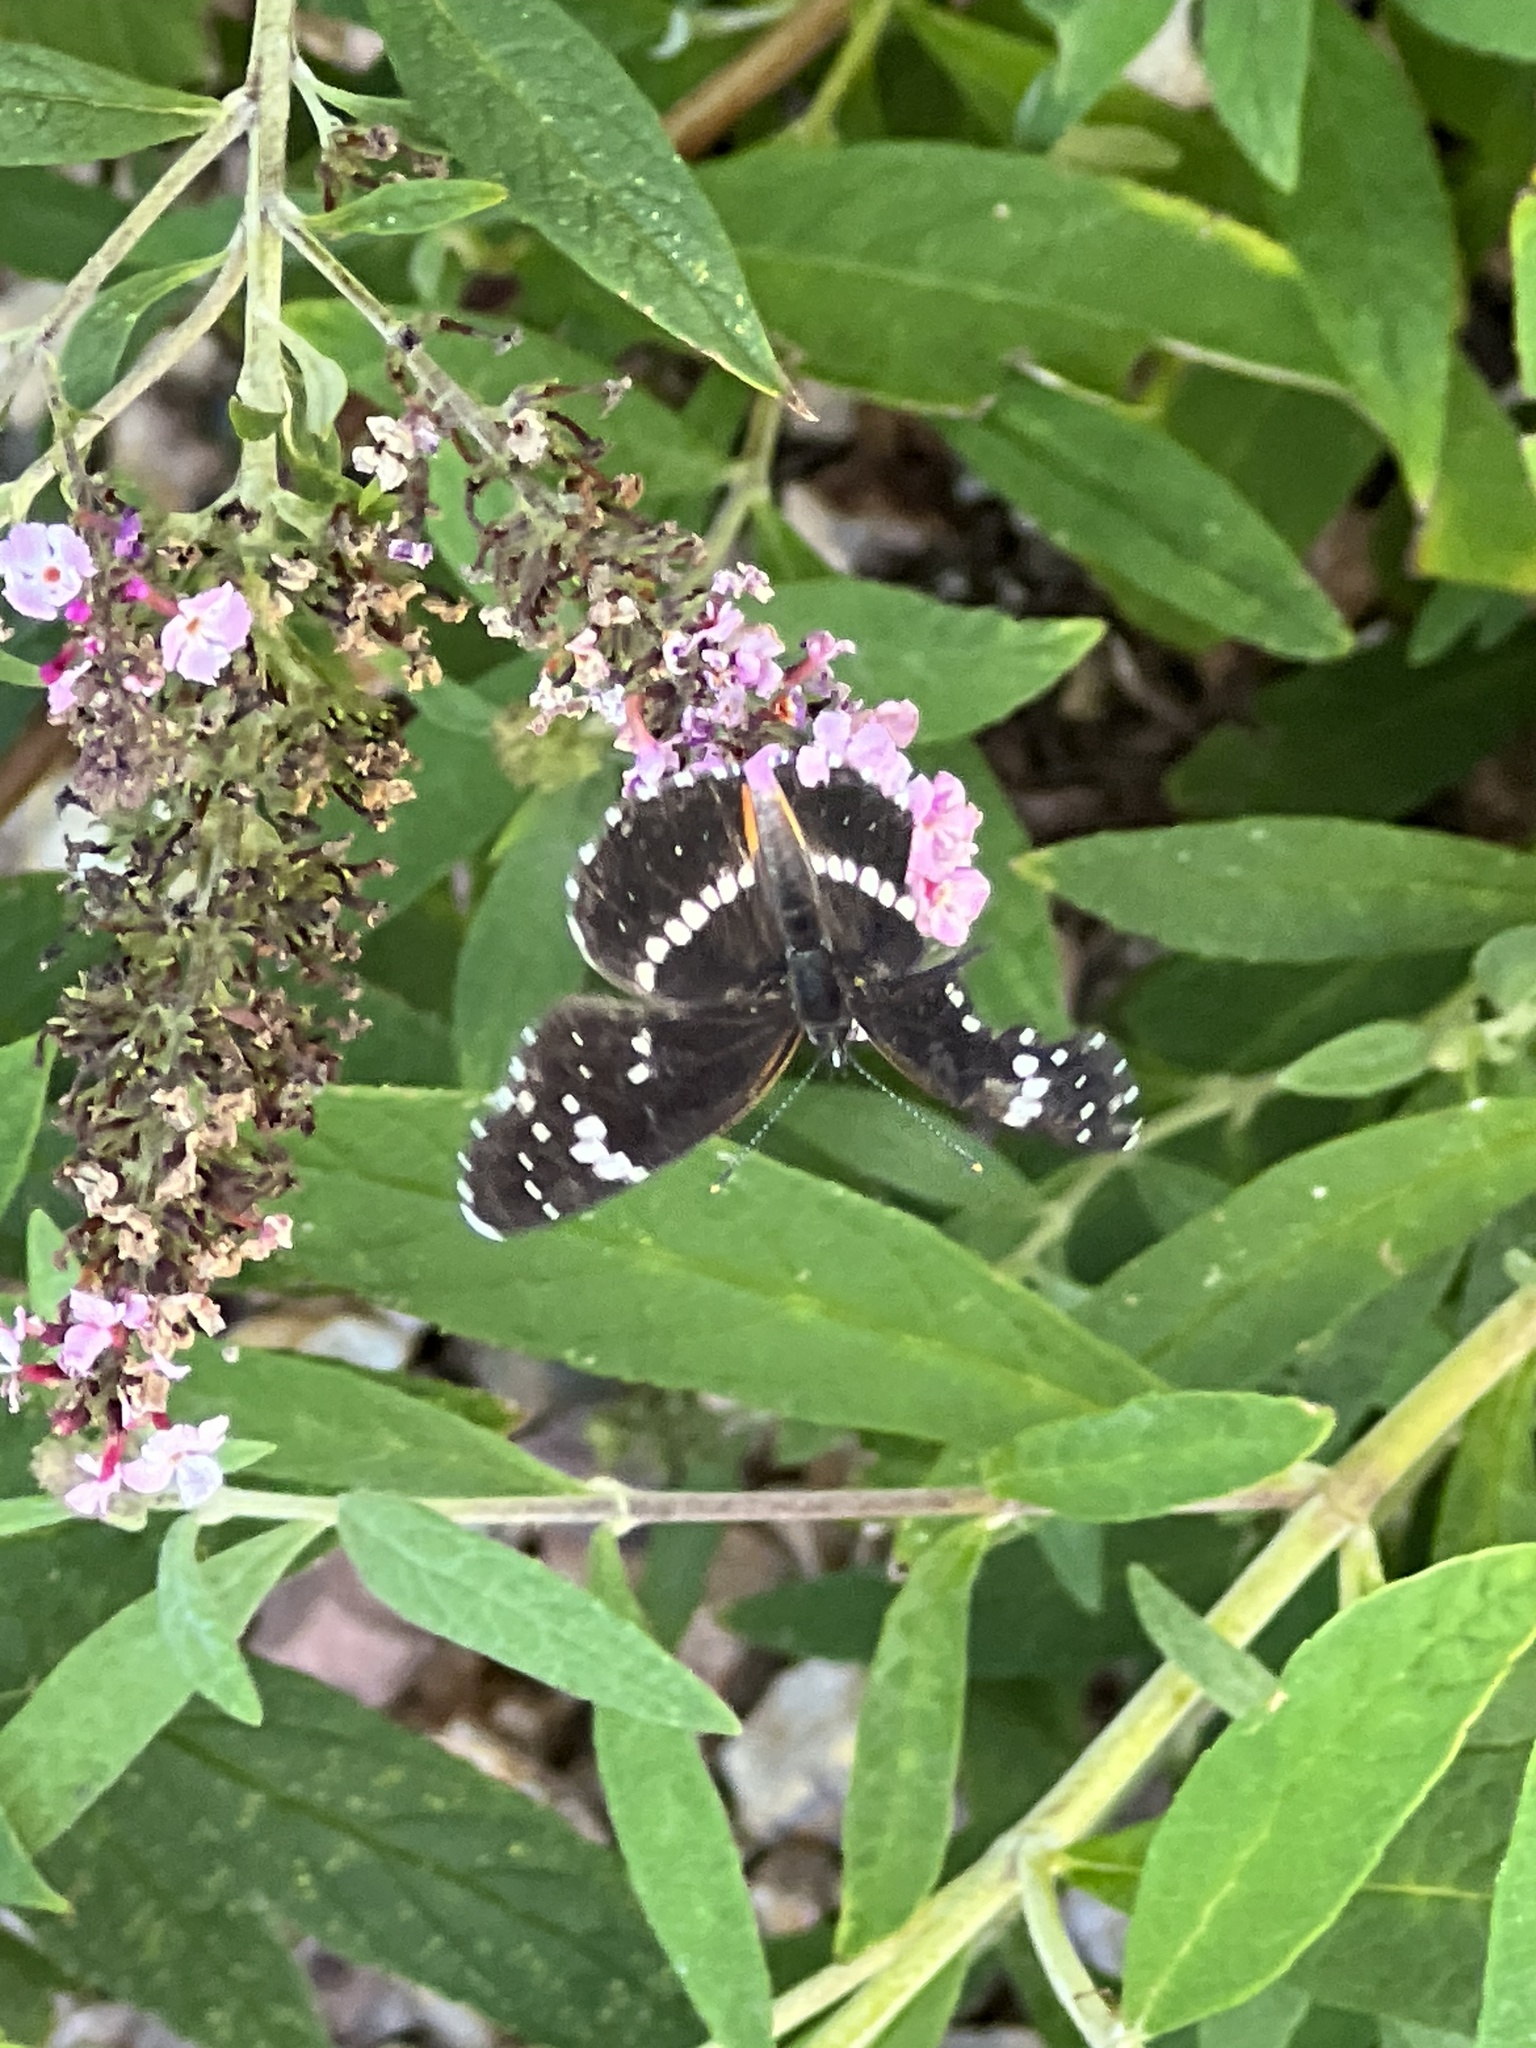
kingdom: Animalia
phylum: Arthropoda
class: Insecta
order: Lepidoptera
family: Nymphalidae
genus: Chlosyne
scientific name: Chlosyne lacinia
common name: Bordered patch
